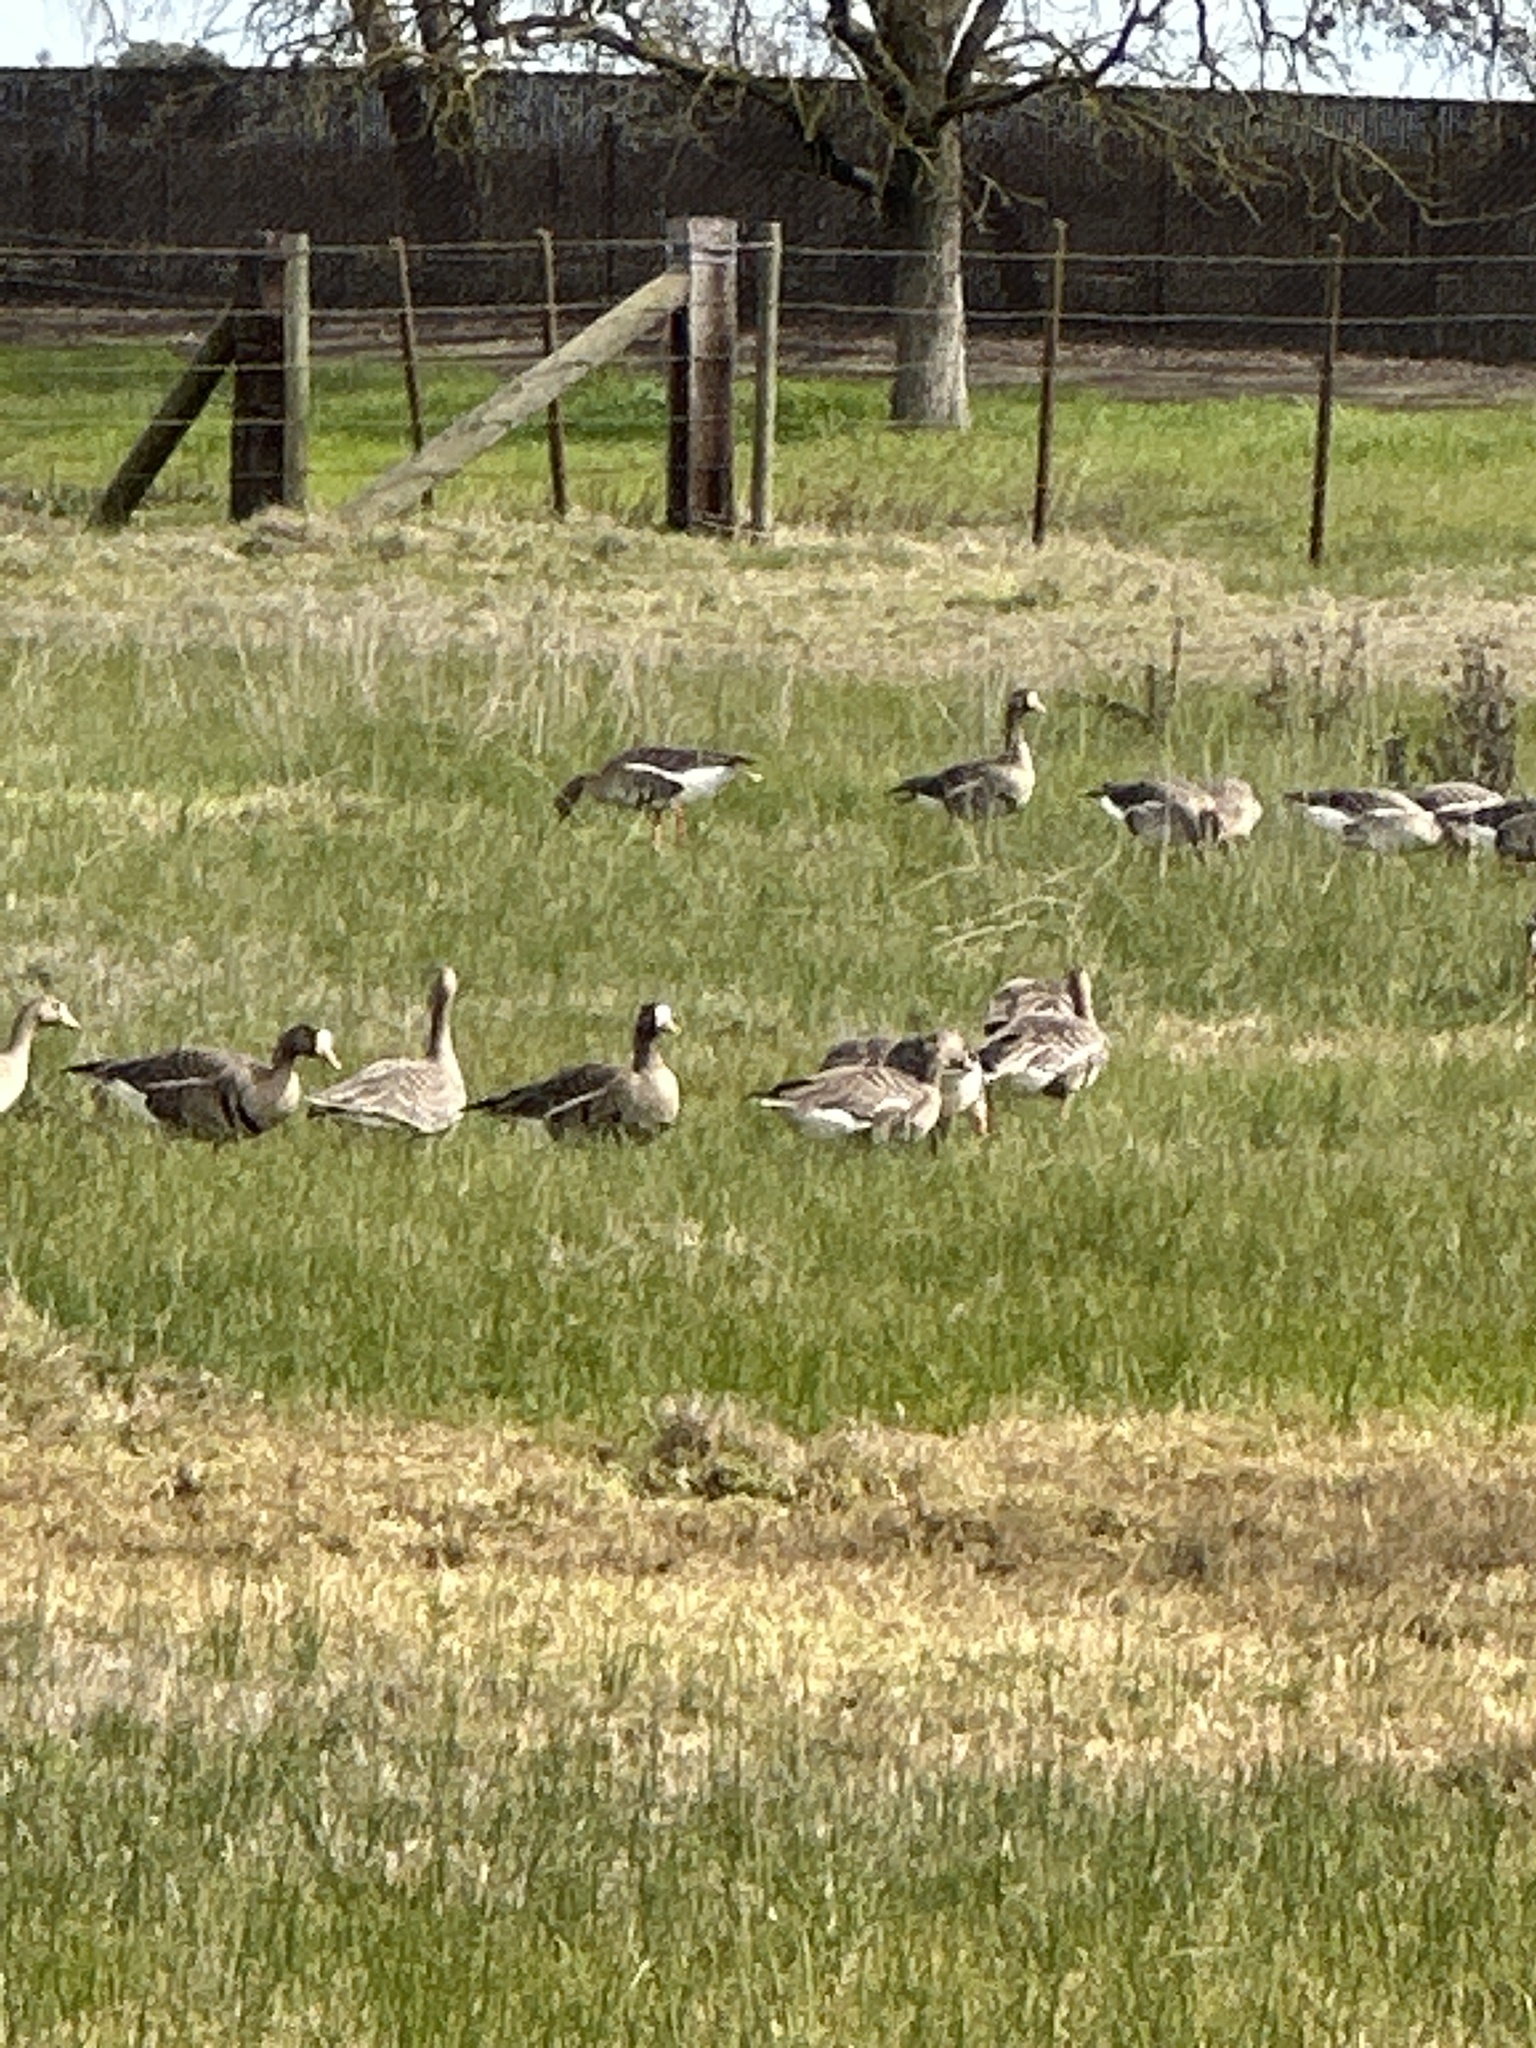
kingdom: Animalia
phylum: Chordata
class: Aves
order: Anseriformes
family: Anatidae
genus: Anser
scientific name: Anser albifrons
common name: Greater white-fronted goose
